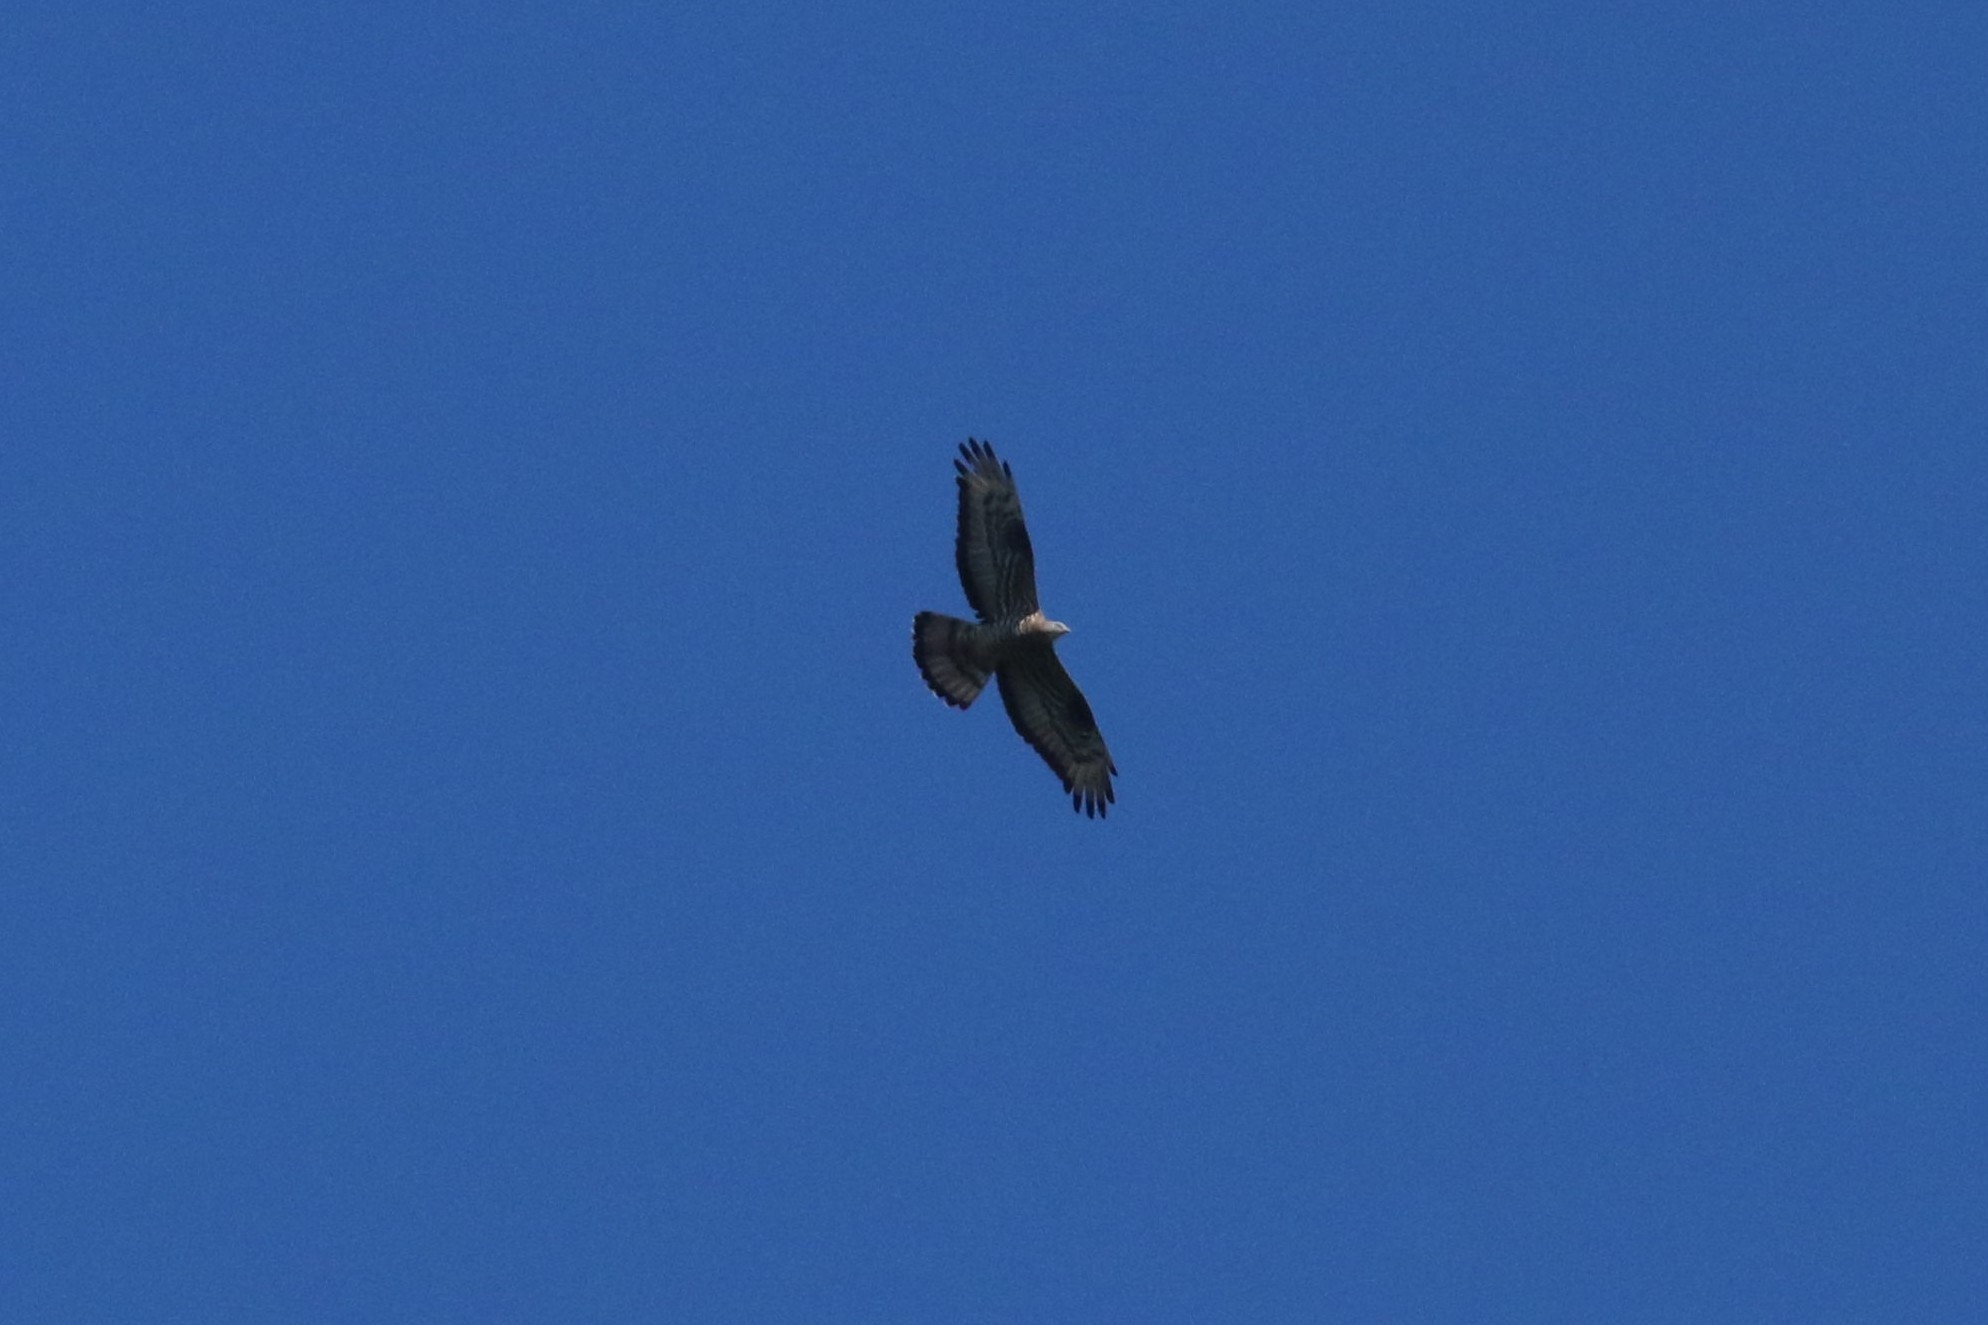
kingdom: Animalia
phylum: Chordata
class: Aves
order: Accipitriformes
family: Accipitridae
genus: Pernis
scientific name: Pernis apivorus
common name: European honey buzzard
